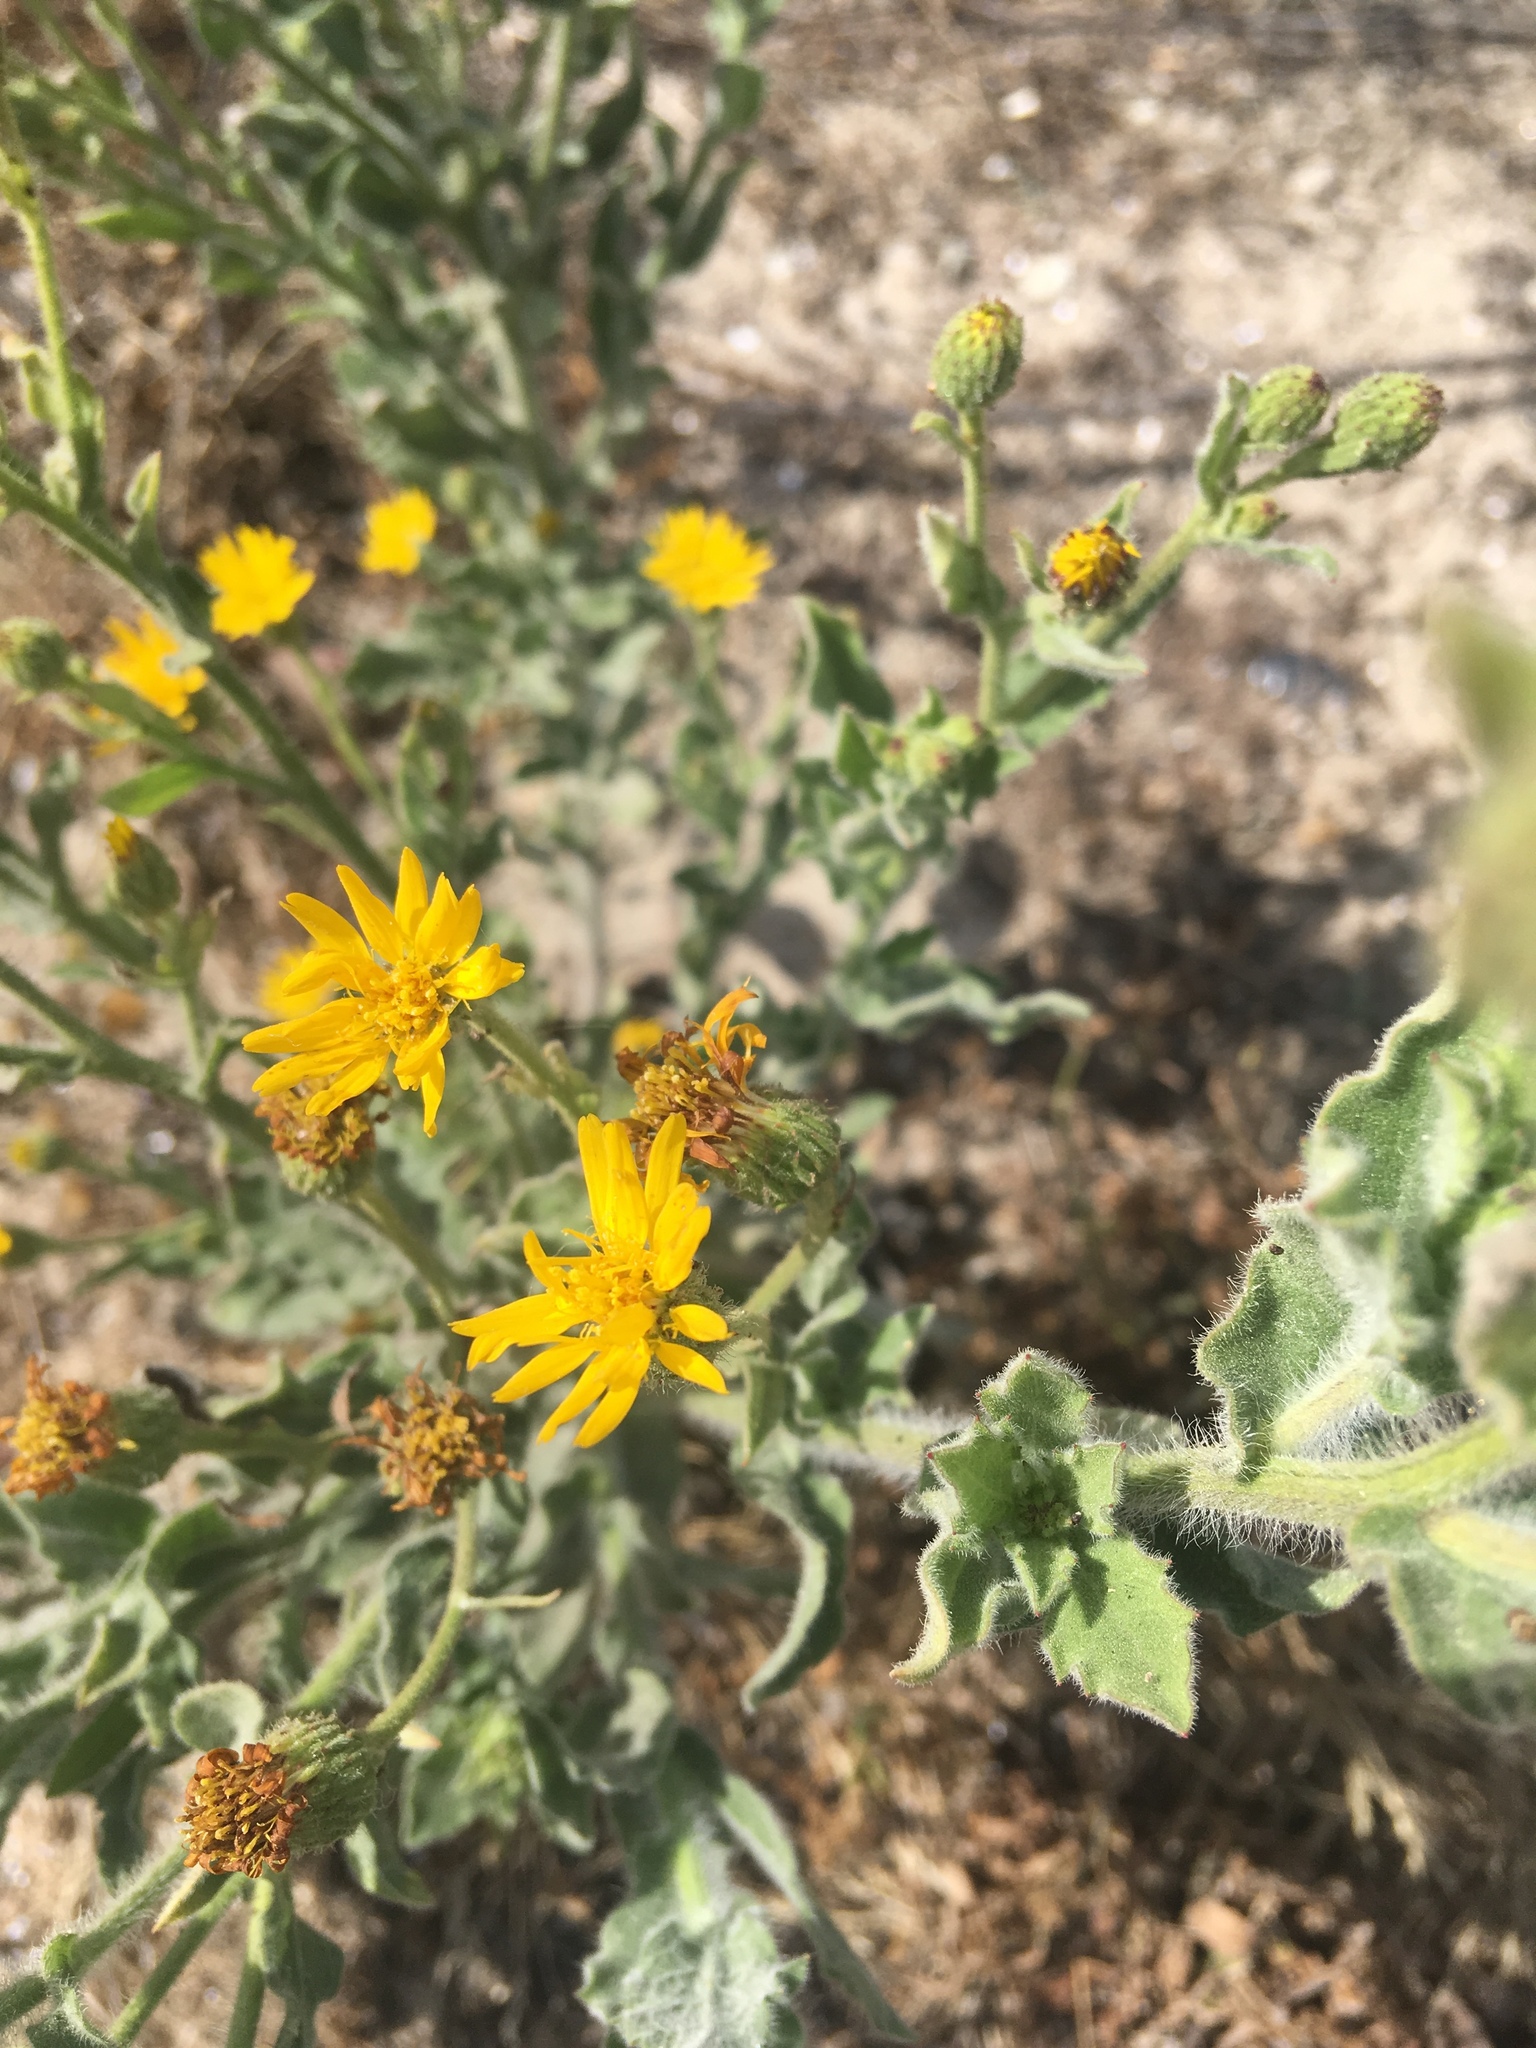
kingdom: Plantae
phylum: Tracheophyta
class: Magnoliopsida
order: Asterales
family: Asteraceae
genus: Heterotheca
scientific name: Heterotheca grandiflora
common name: Telegraphweed
